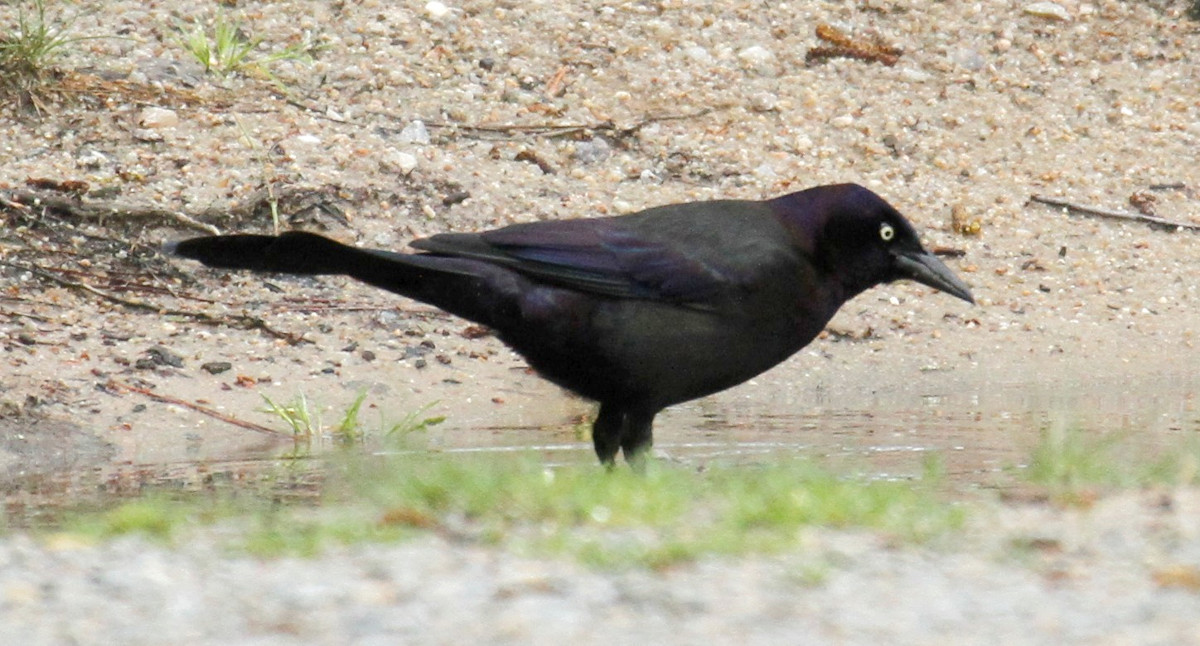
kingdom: Animalia
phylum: Chordata
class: Aves
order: Passeriformes
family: Icteridae
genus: Quiscalus
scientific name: Quiscalus quiscula
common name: Common grackle
